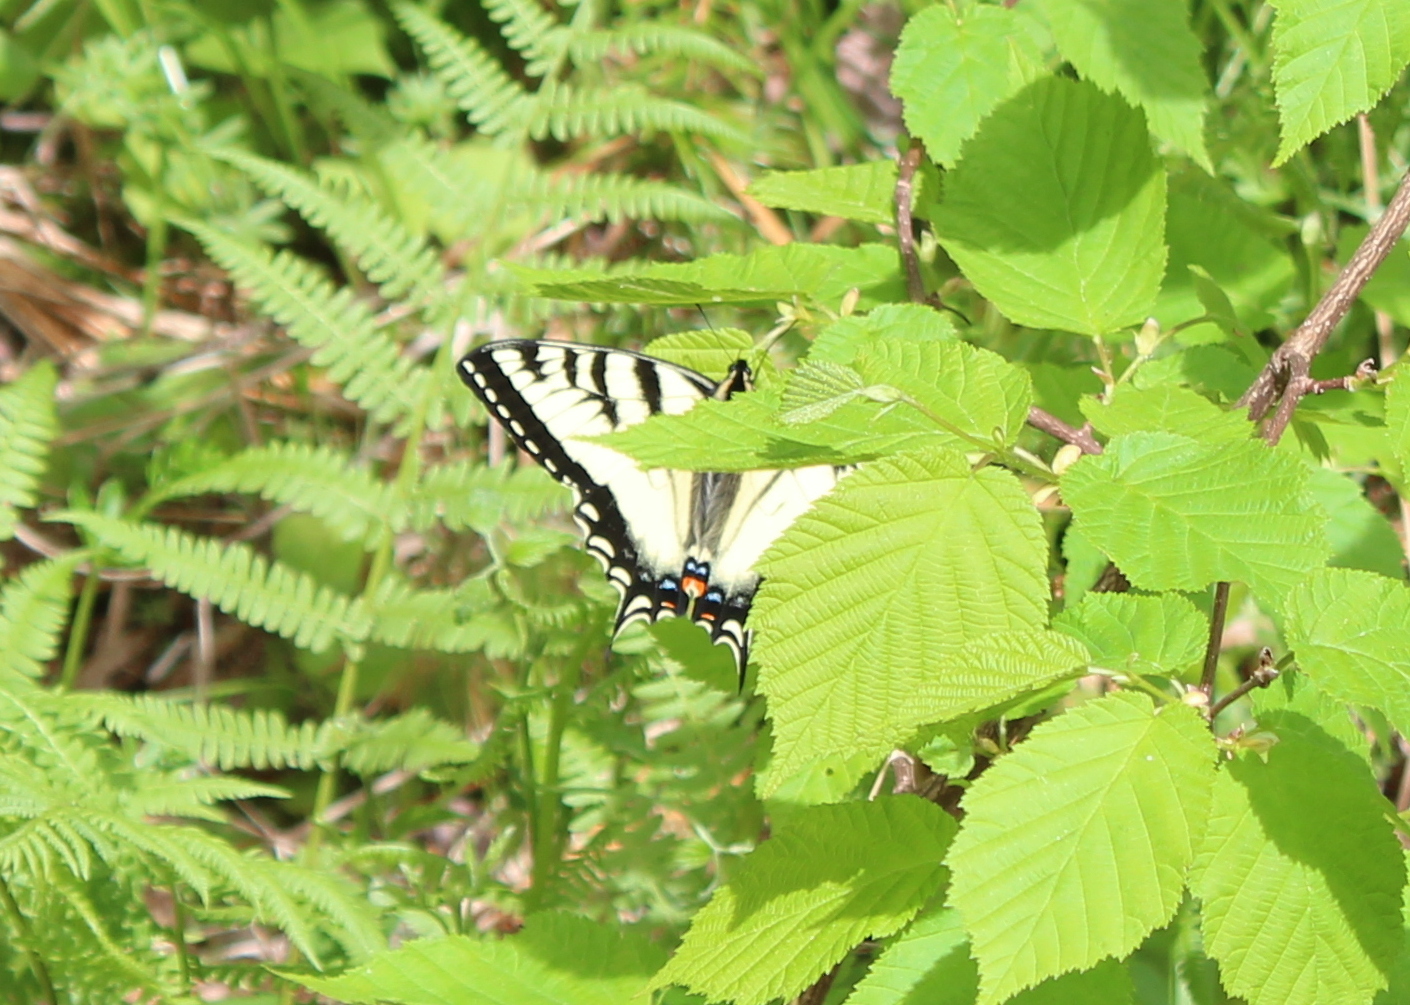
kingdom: Animalia
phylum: Arthropoda
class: Insecta
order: Lepidoptera
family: Papilionidae
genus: Papilio
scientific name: Papilio canadensis
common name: Canadian tiger swallowtail
